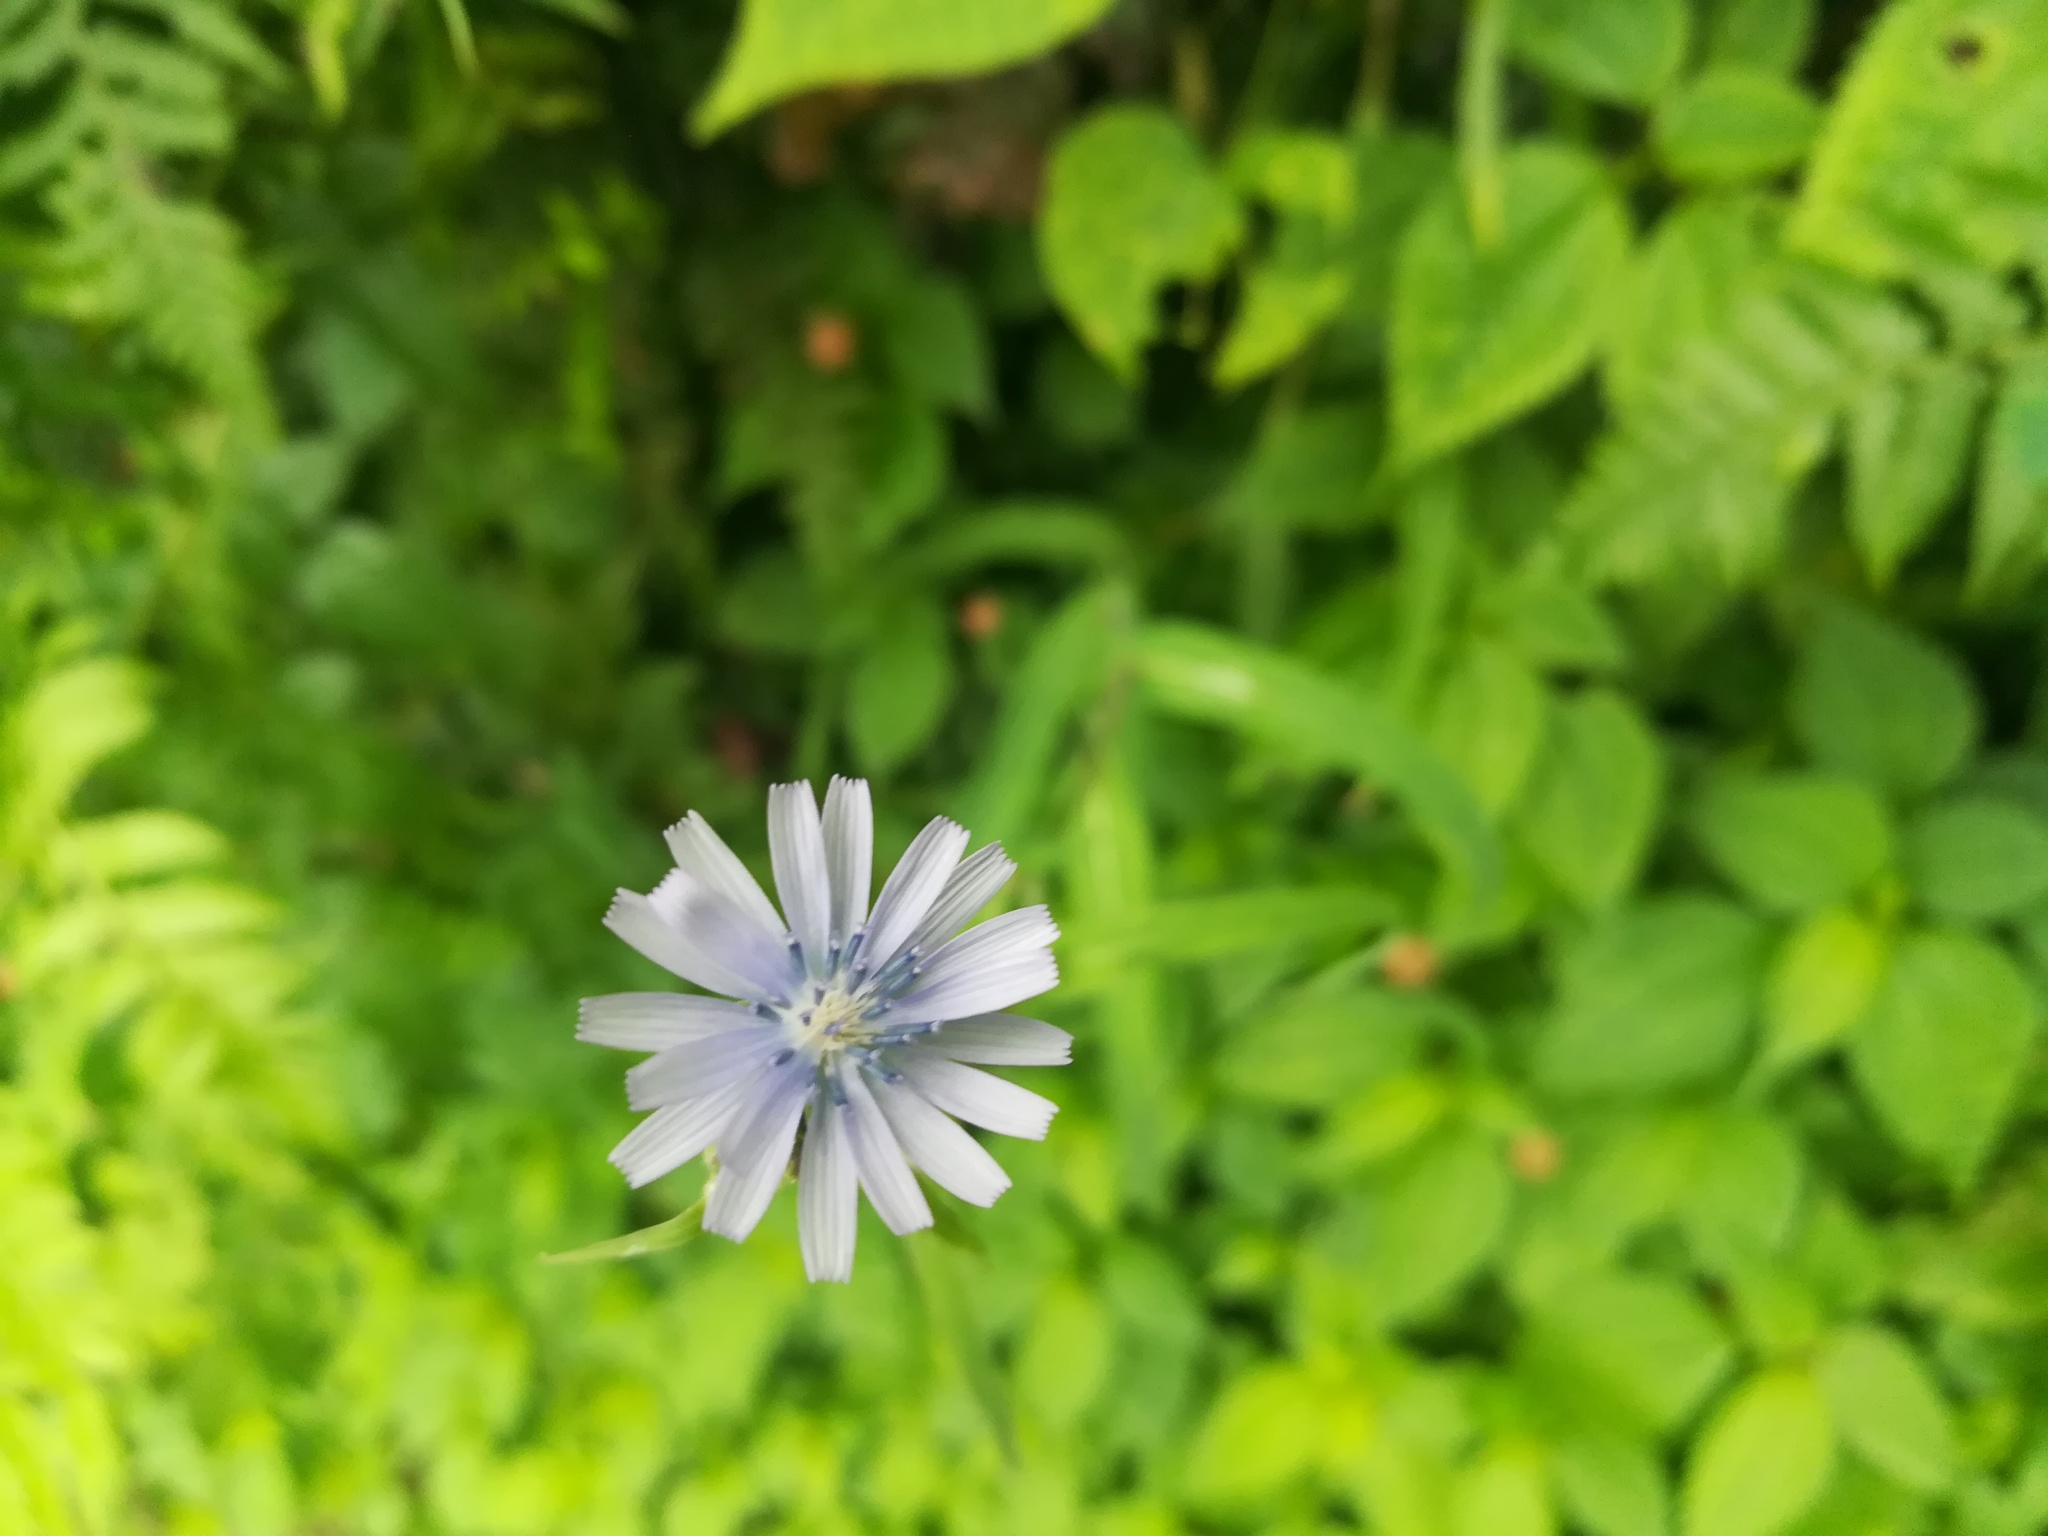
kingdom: Plantae
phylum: Tracheophyta
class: Magnoliopsida
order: Asterales
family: Asteraceae
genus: Cichorium
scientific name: Cichorium intybus
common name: Chicory
